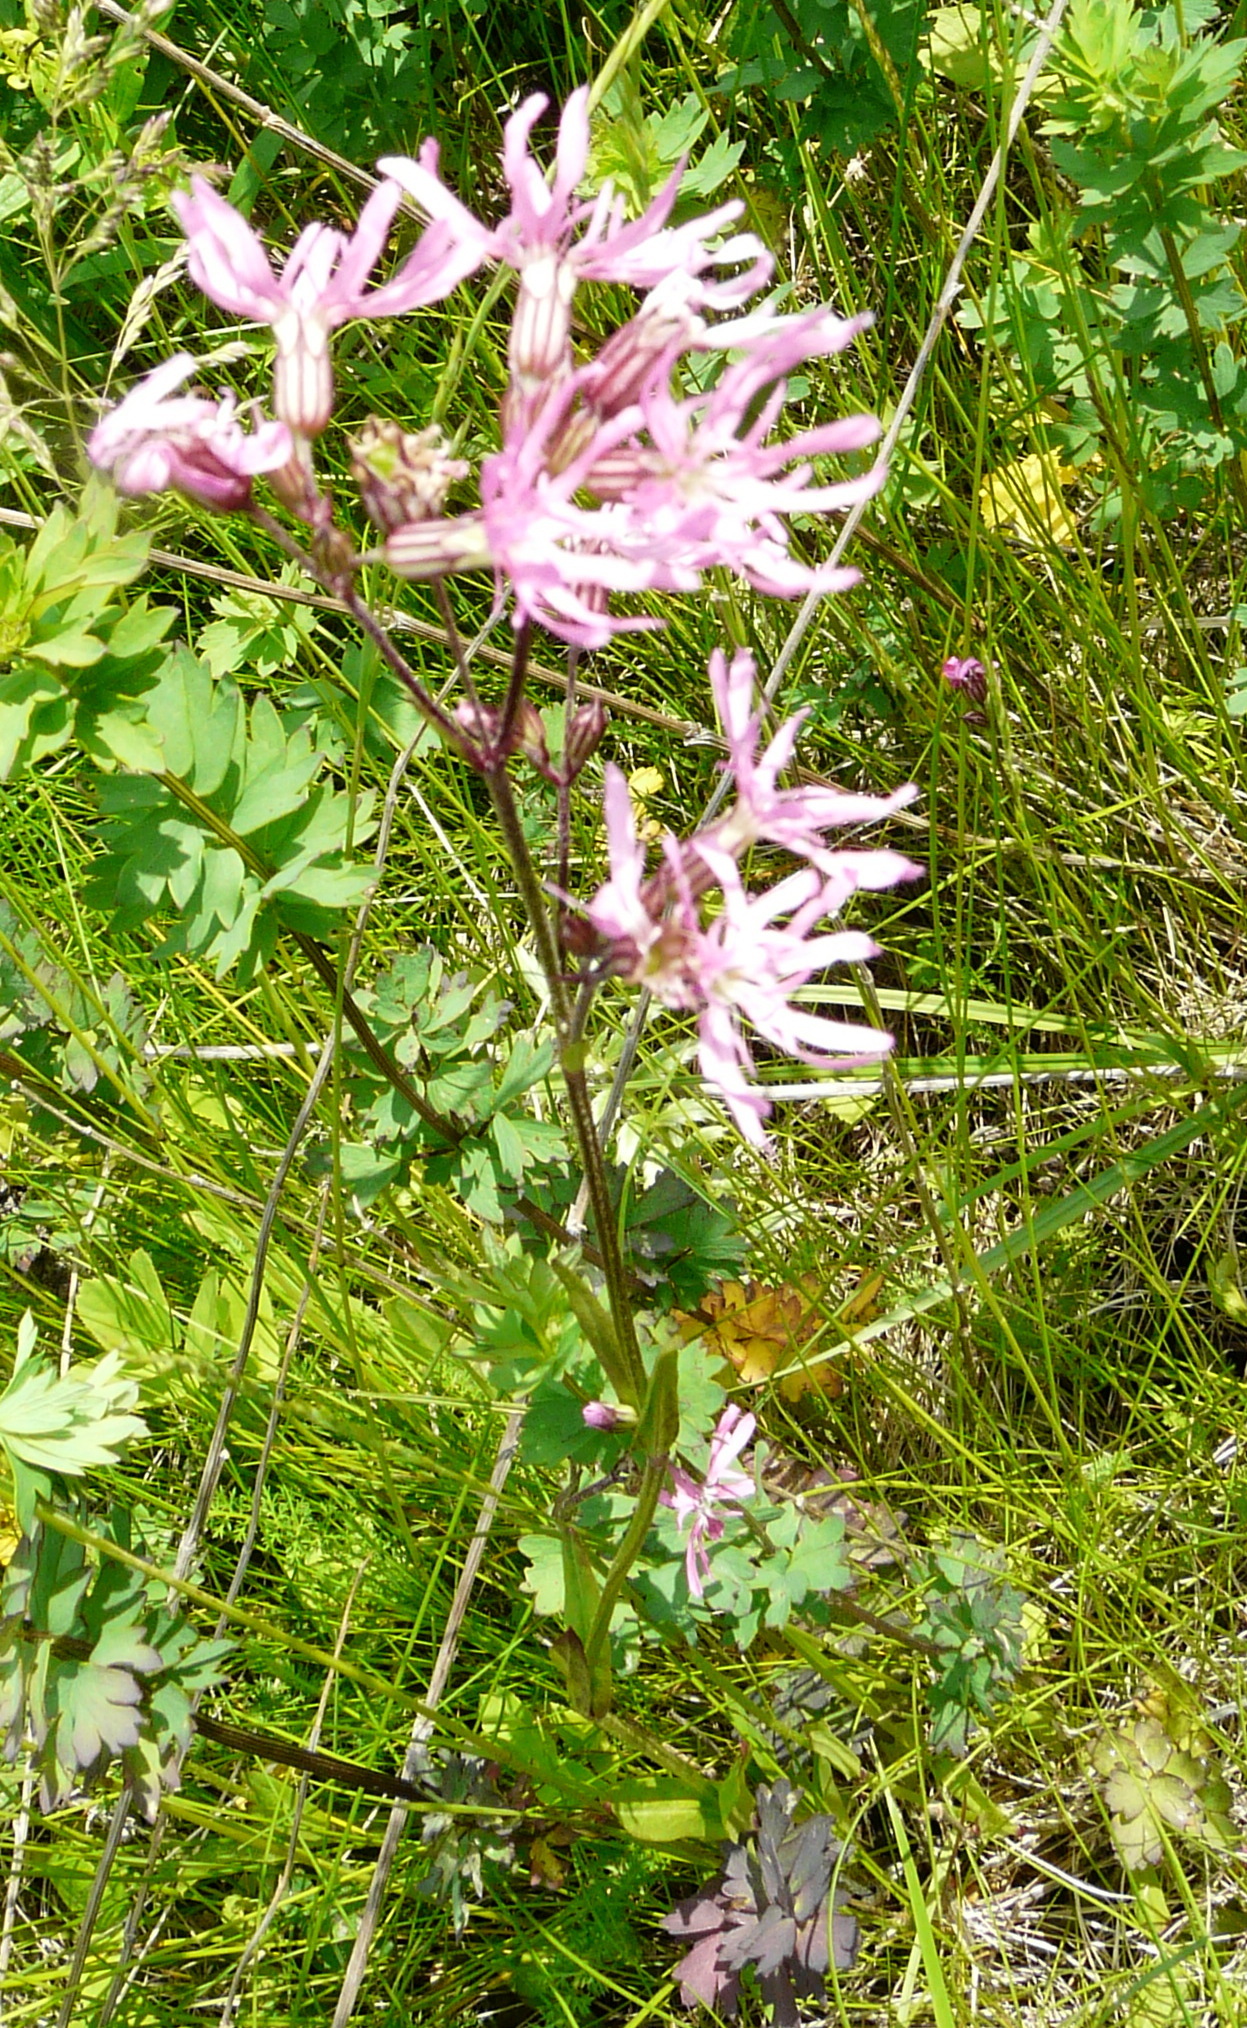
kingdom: Plantae
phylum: Tracheophyta
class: Magnoliopsida
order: Caryophyllales
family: Caryophyllaceae
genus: Silene
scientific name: Silene flos-cuculi
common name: Ragged-robin
